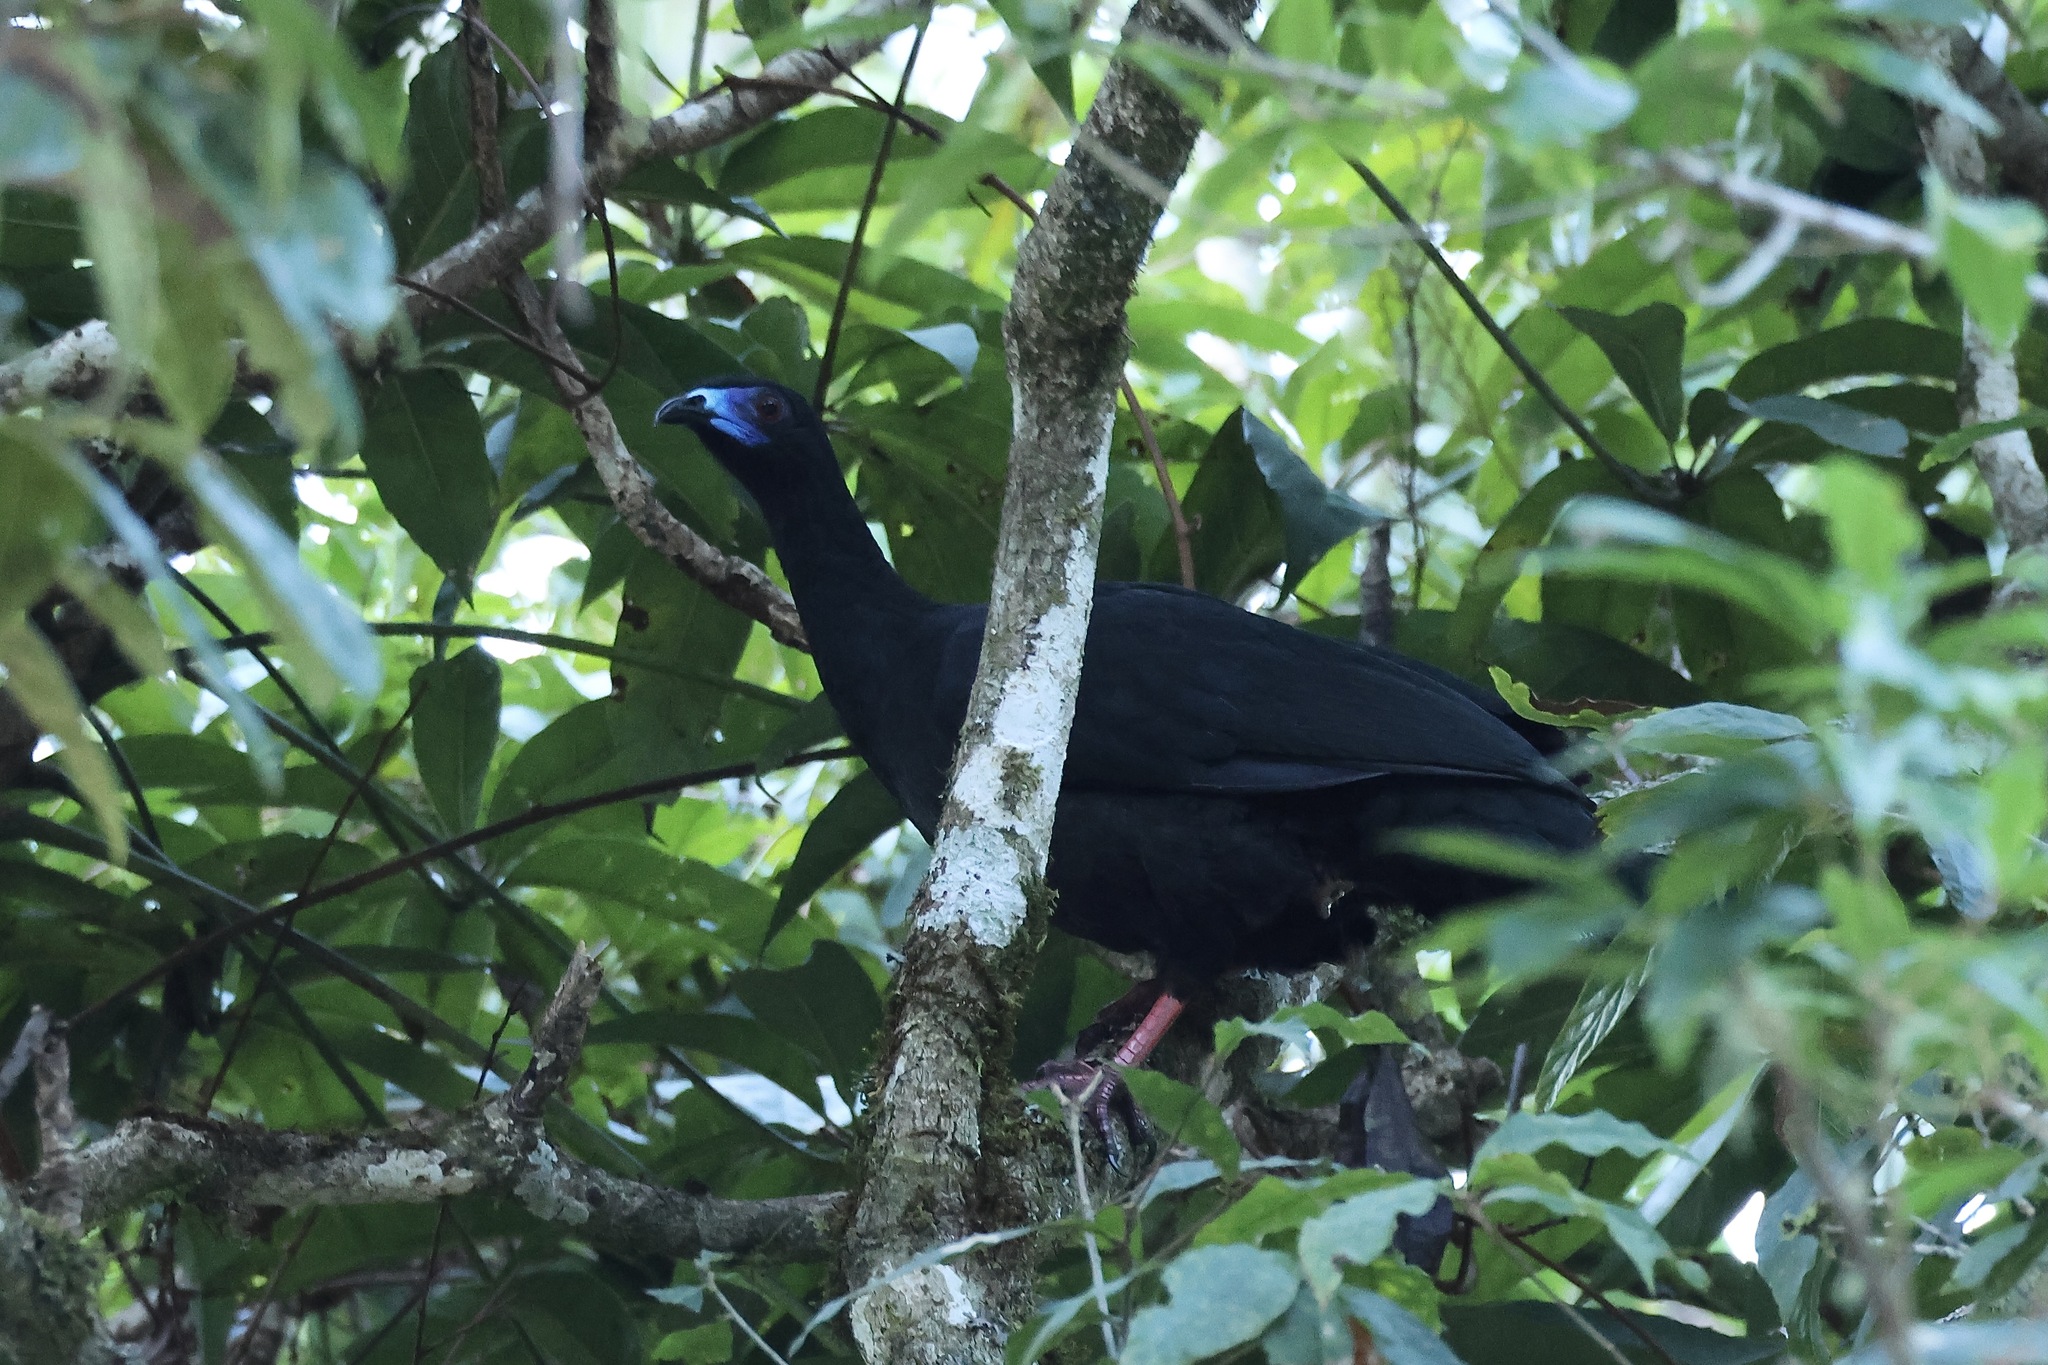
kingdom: Animalia
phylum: Chordata
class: Aves
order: Galliformes
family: Cracidae
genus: Chamaepetes
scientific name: Chamaepetes unicolor
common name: Black guan
